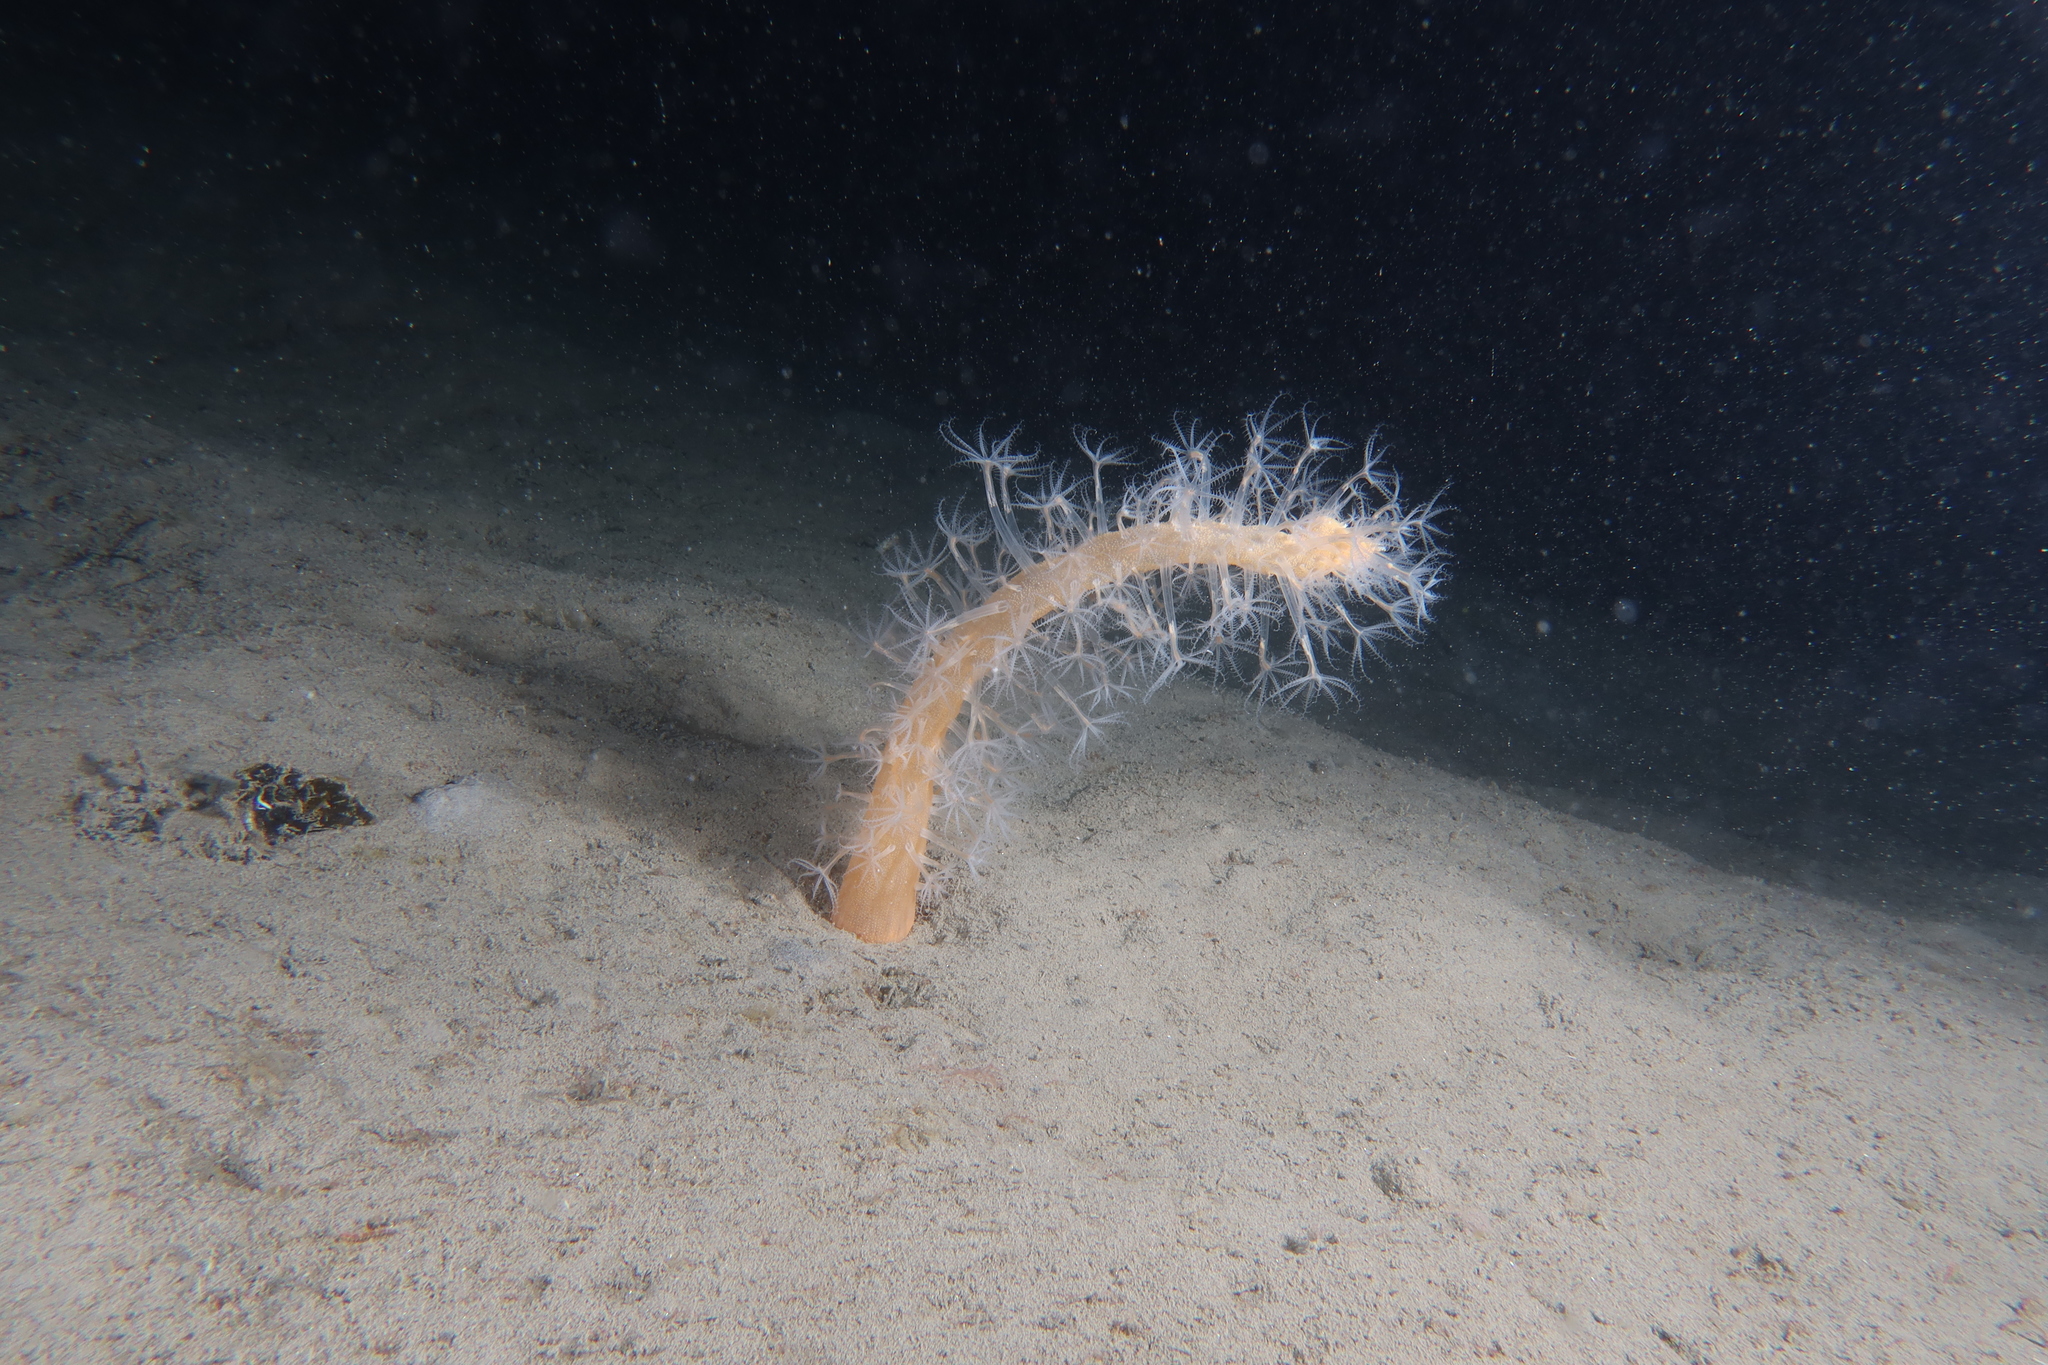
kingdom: Animalia
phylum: Cnidaria
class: Anthozoa
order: Scleralcyonacea
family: Veretillidae
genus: Veretillum
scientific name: Veretillum cynomorium
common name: Finger-shaped sea-pen
